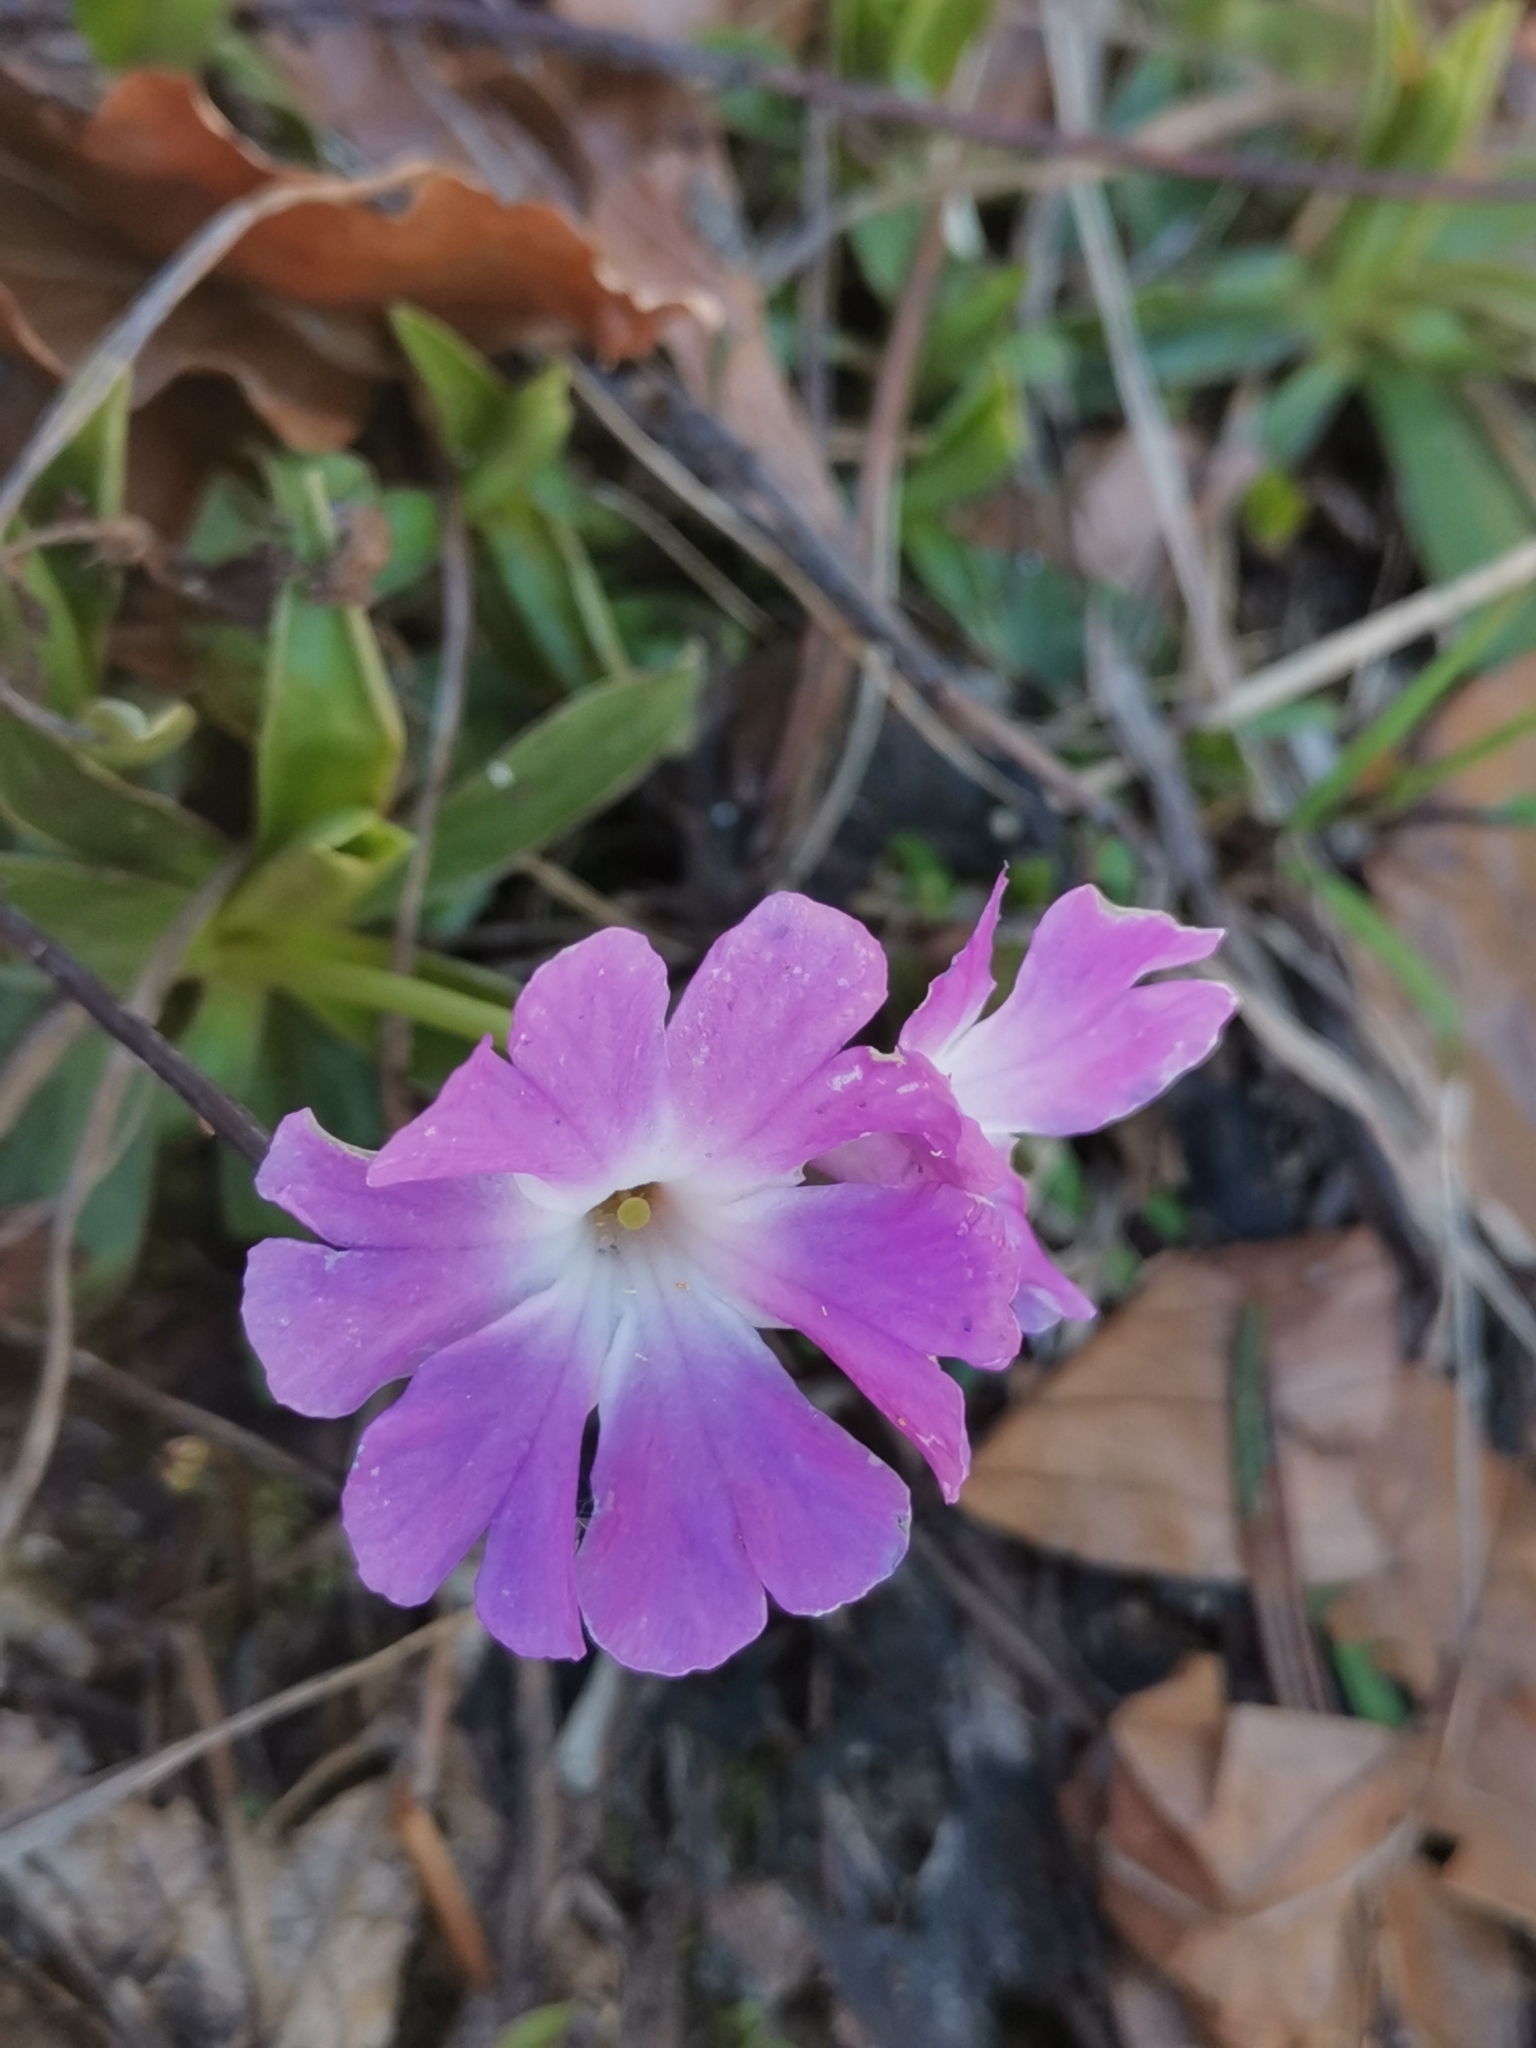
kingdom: Plantae
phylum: Tracheophyta
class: Magnoliopsida
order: Ericales
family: Primulaceae
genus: Primula
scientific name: Primula wulfeniana
